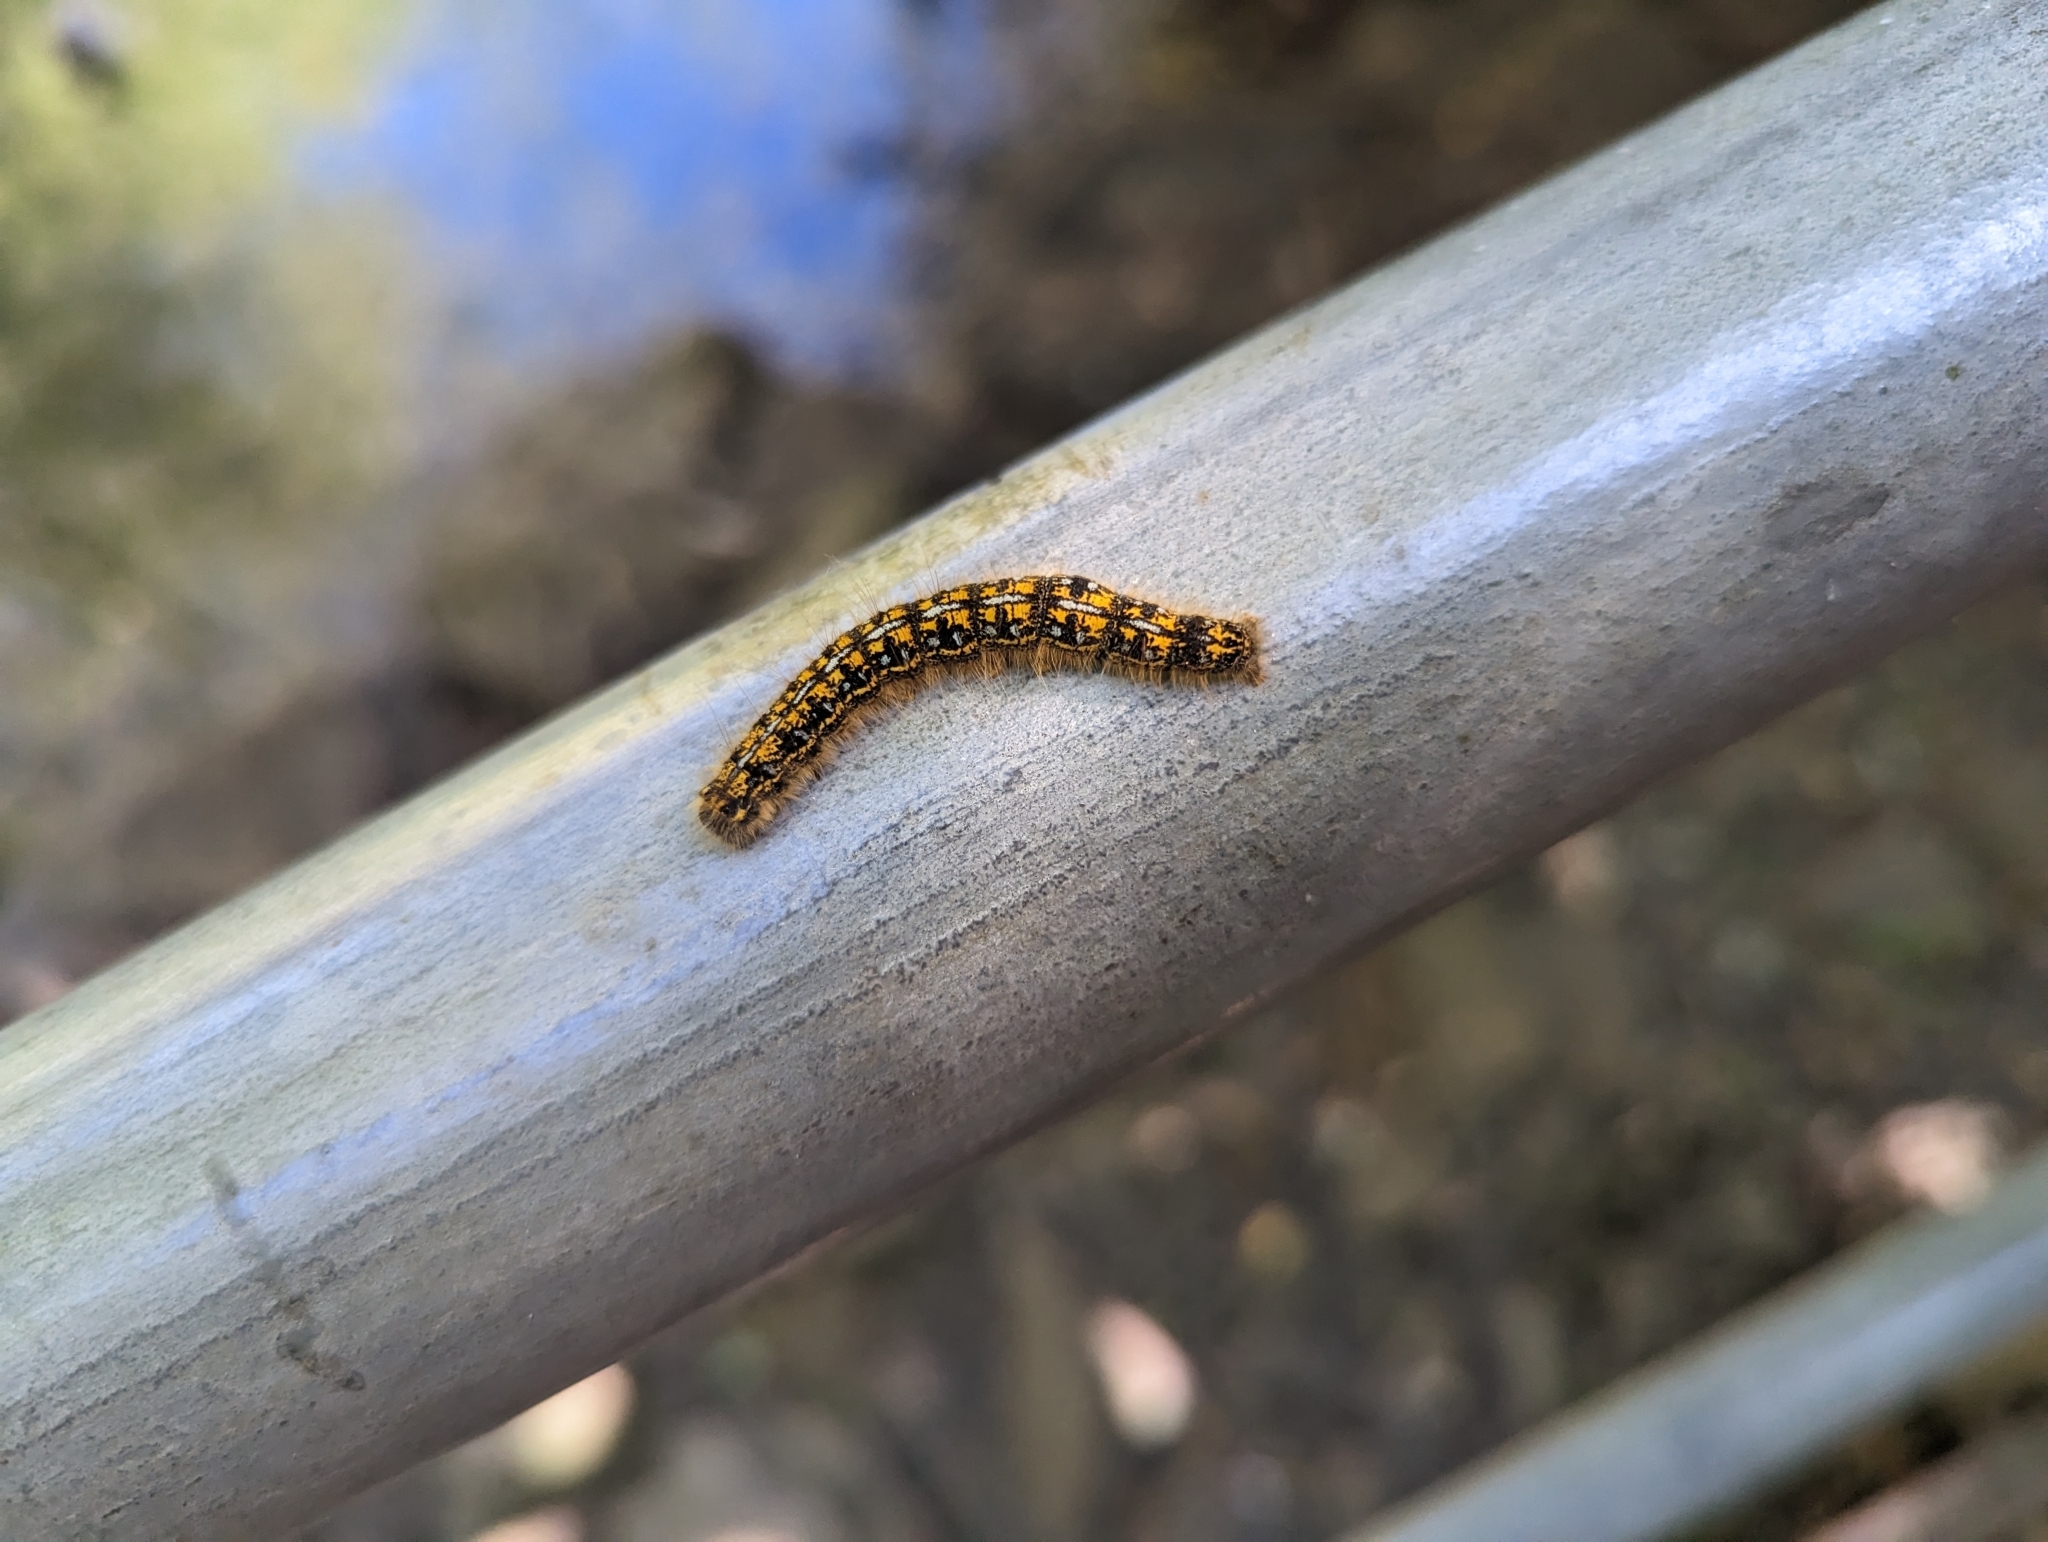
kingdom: Animalia
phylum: Arthropoda
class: Insecta
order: Lepidoptera
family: Lasiocampidae
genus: Malacosoma
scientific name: Malacosoma californica
